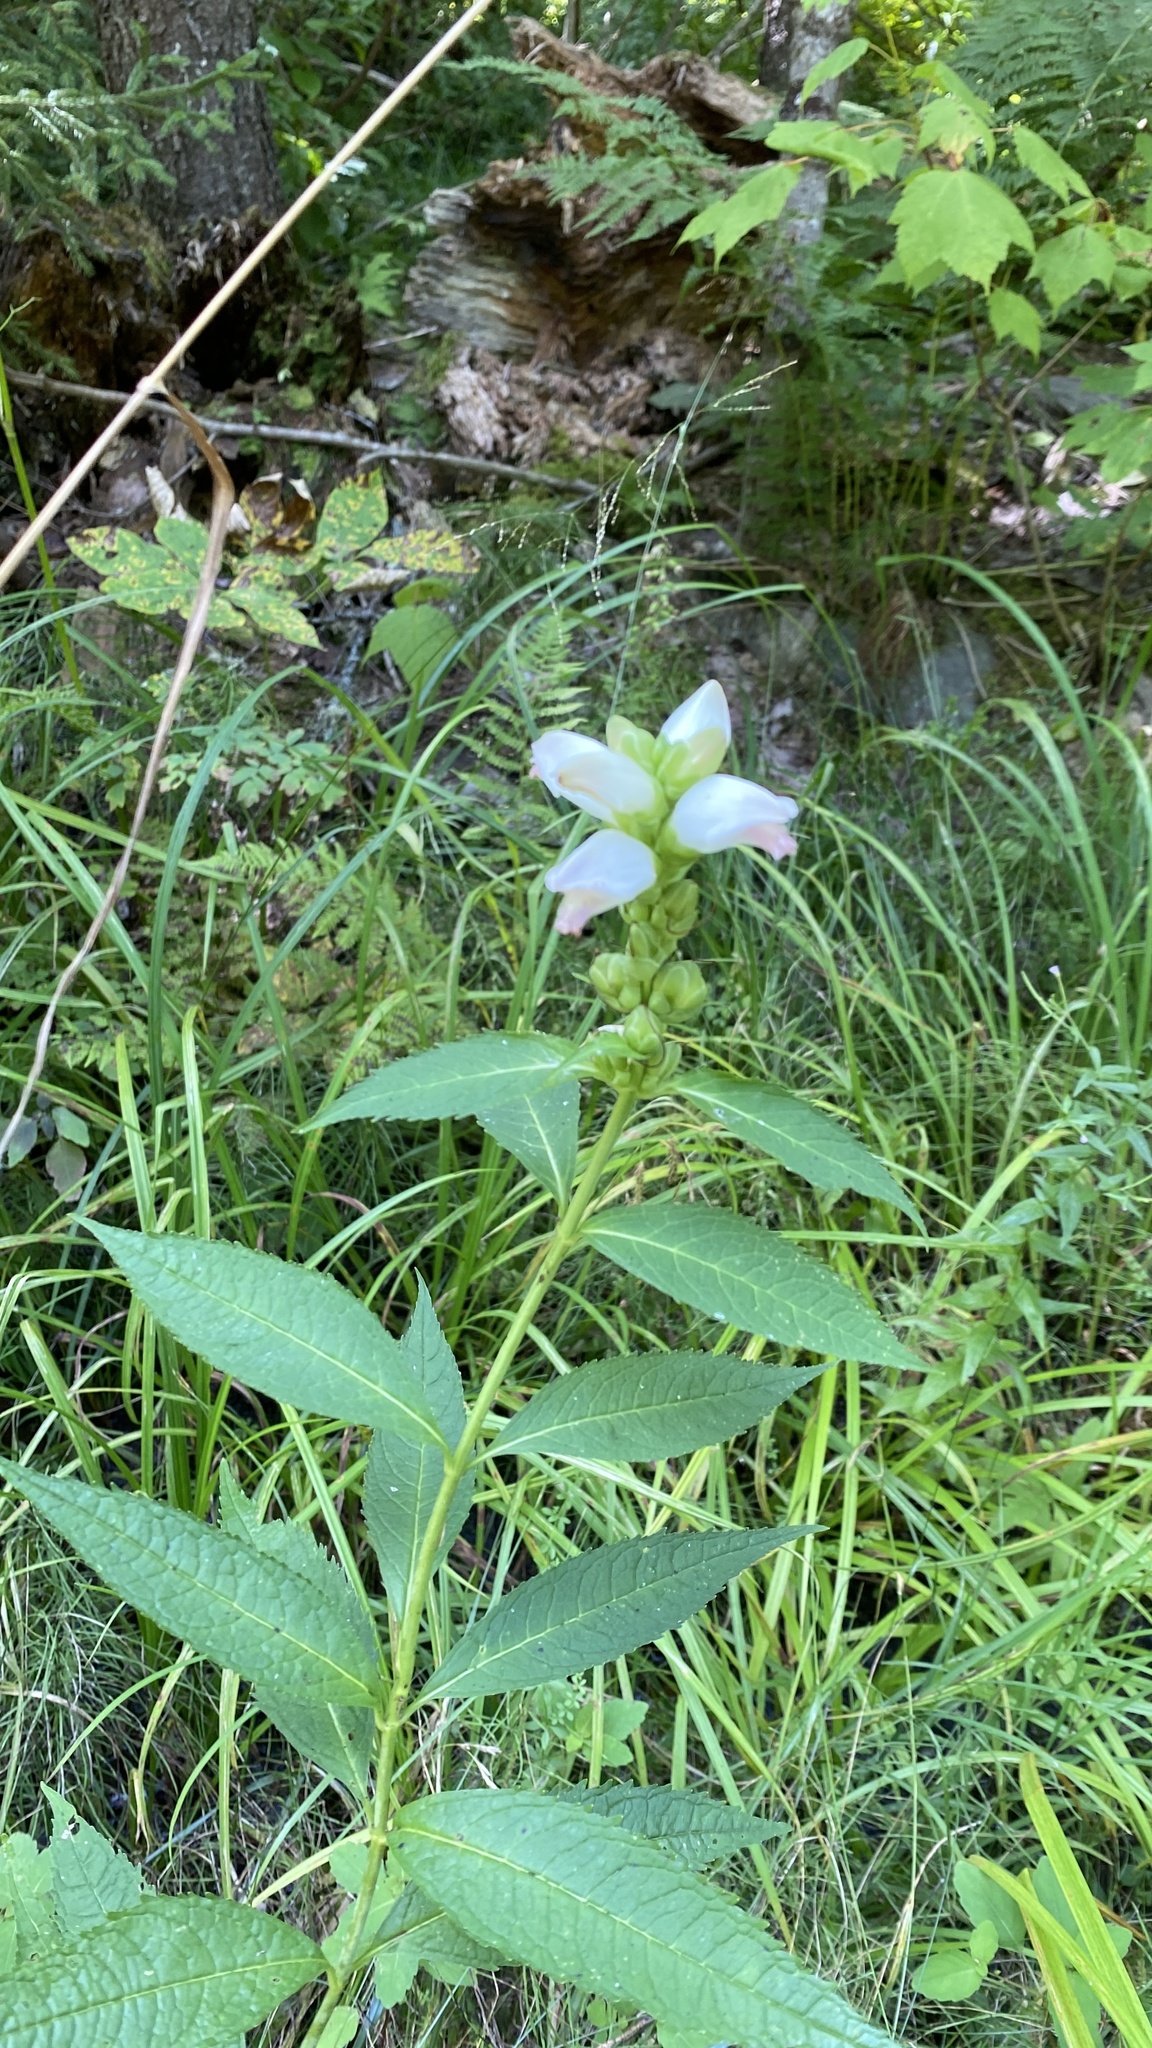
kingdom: Plantae
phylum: Tracheophyta
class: Magnoliopsida
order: Lamiales
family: Plantaginaceae
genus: Chelone
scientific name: Chelone glabra
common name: Snakehead
